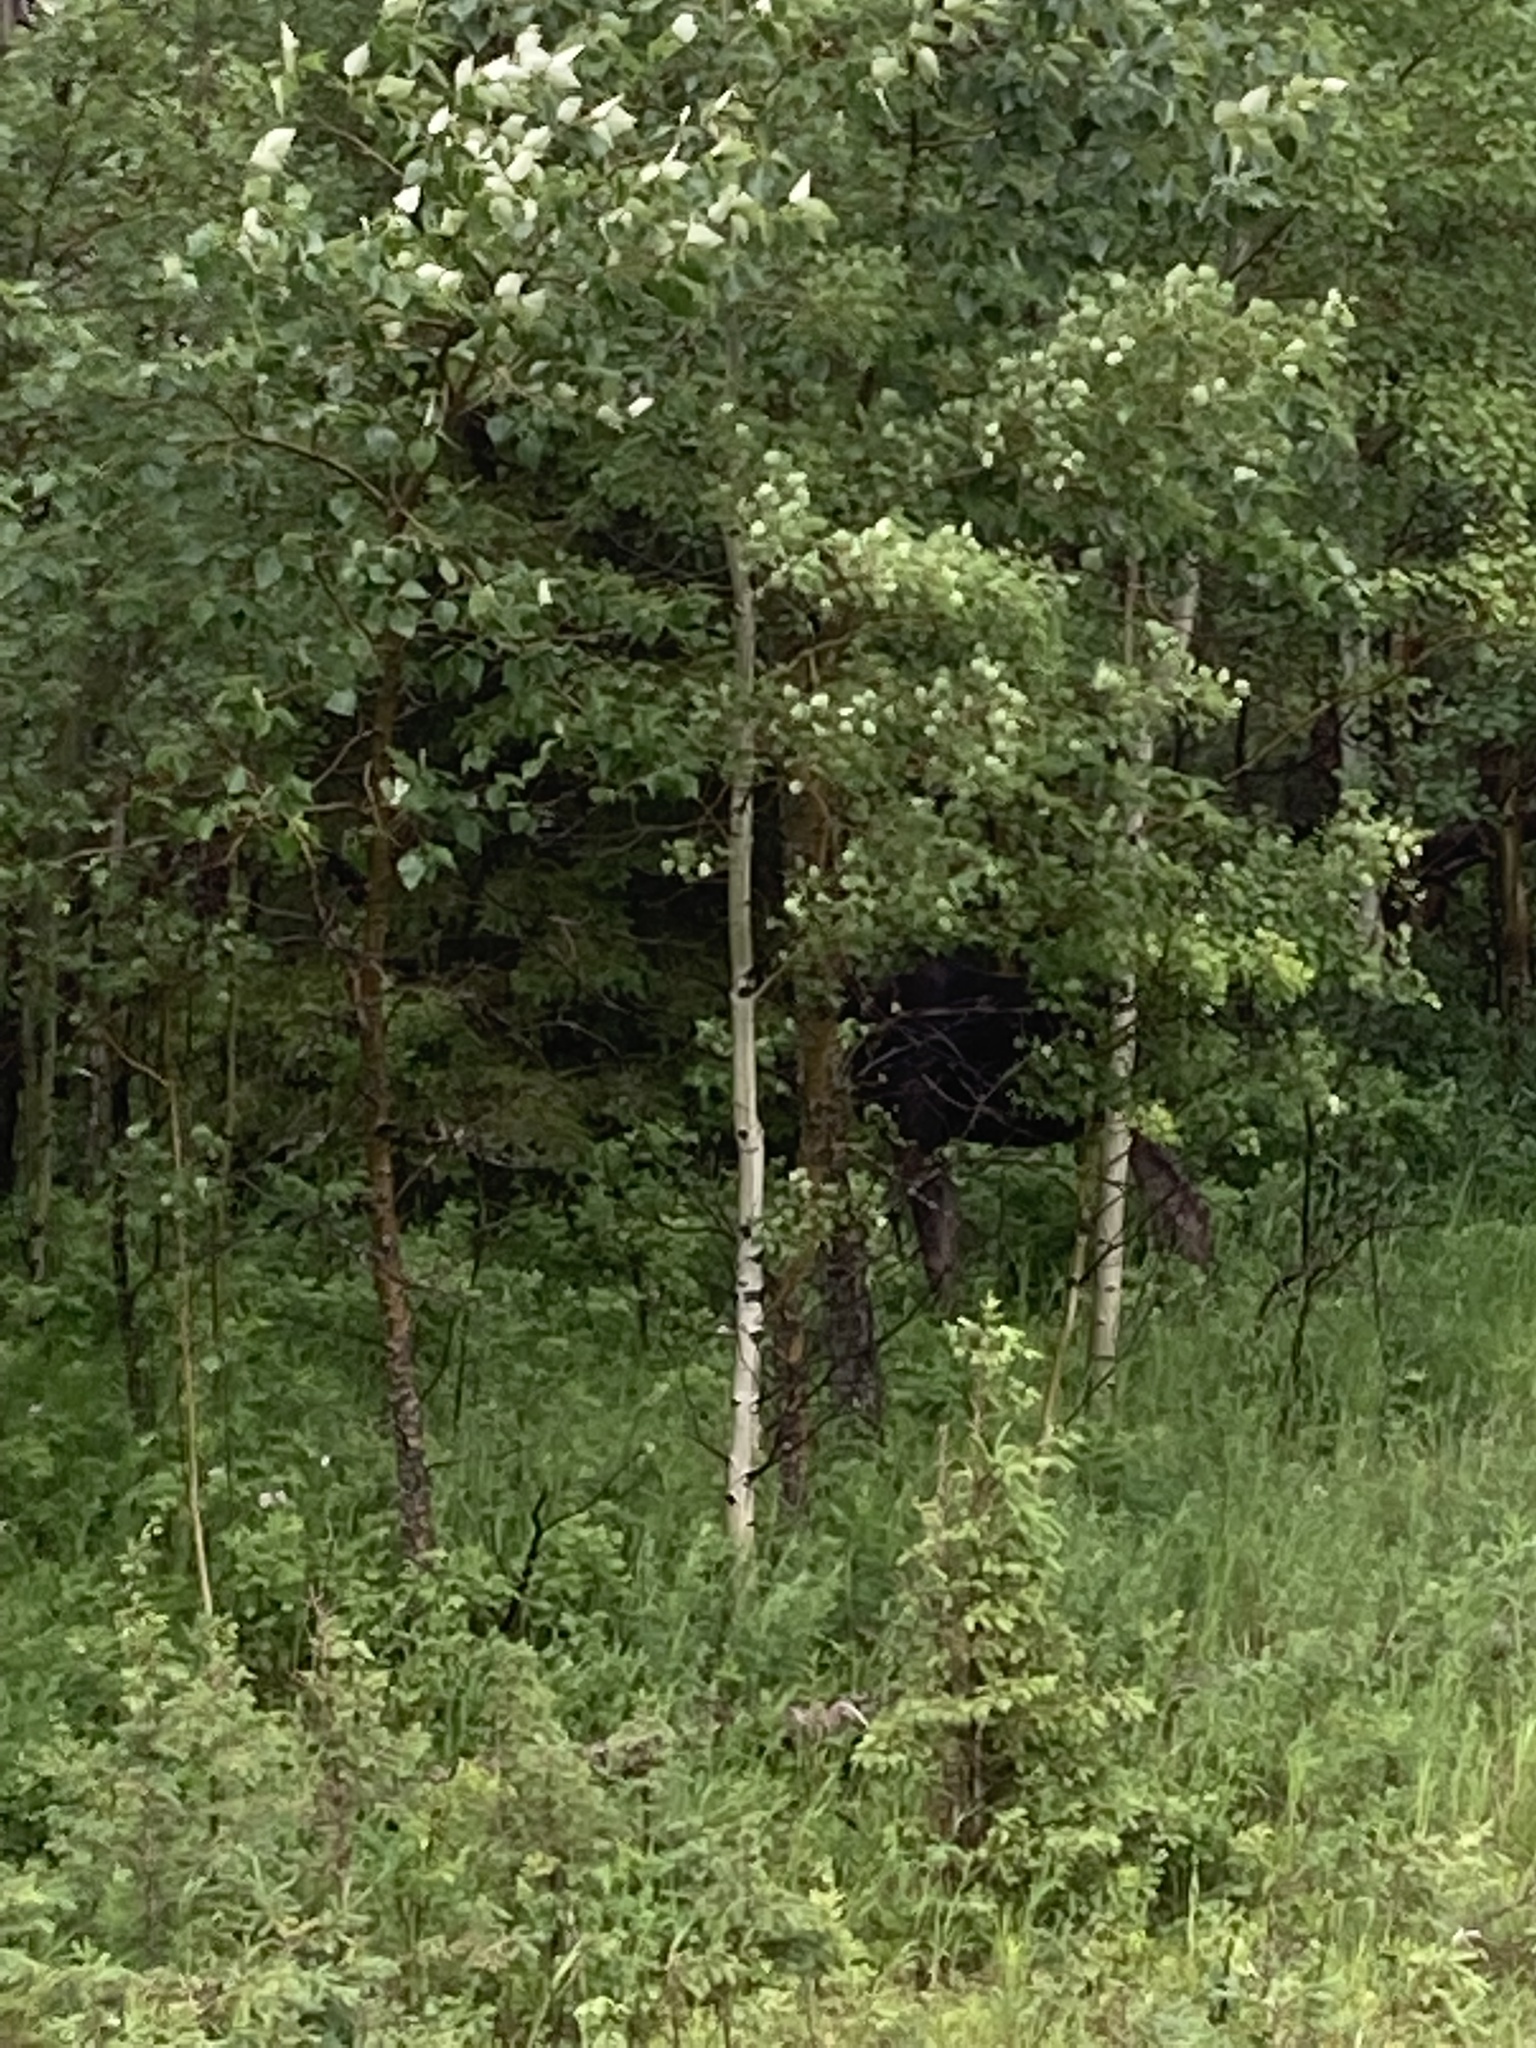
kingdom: Animalia
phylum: Chordata
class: Mammalia
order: Artiodactyla
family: Cervidae
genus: Alces
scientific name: Alces alces
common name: Moose
